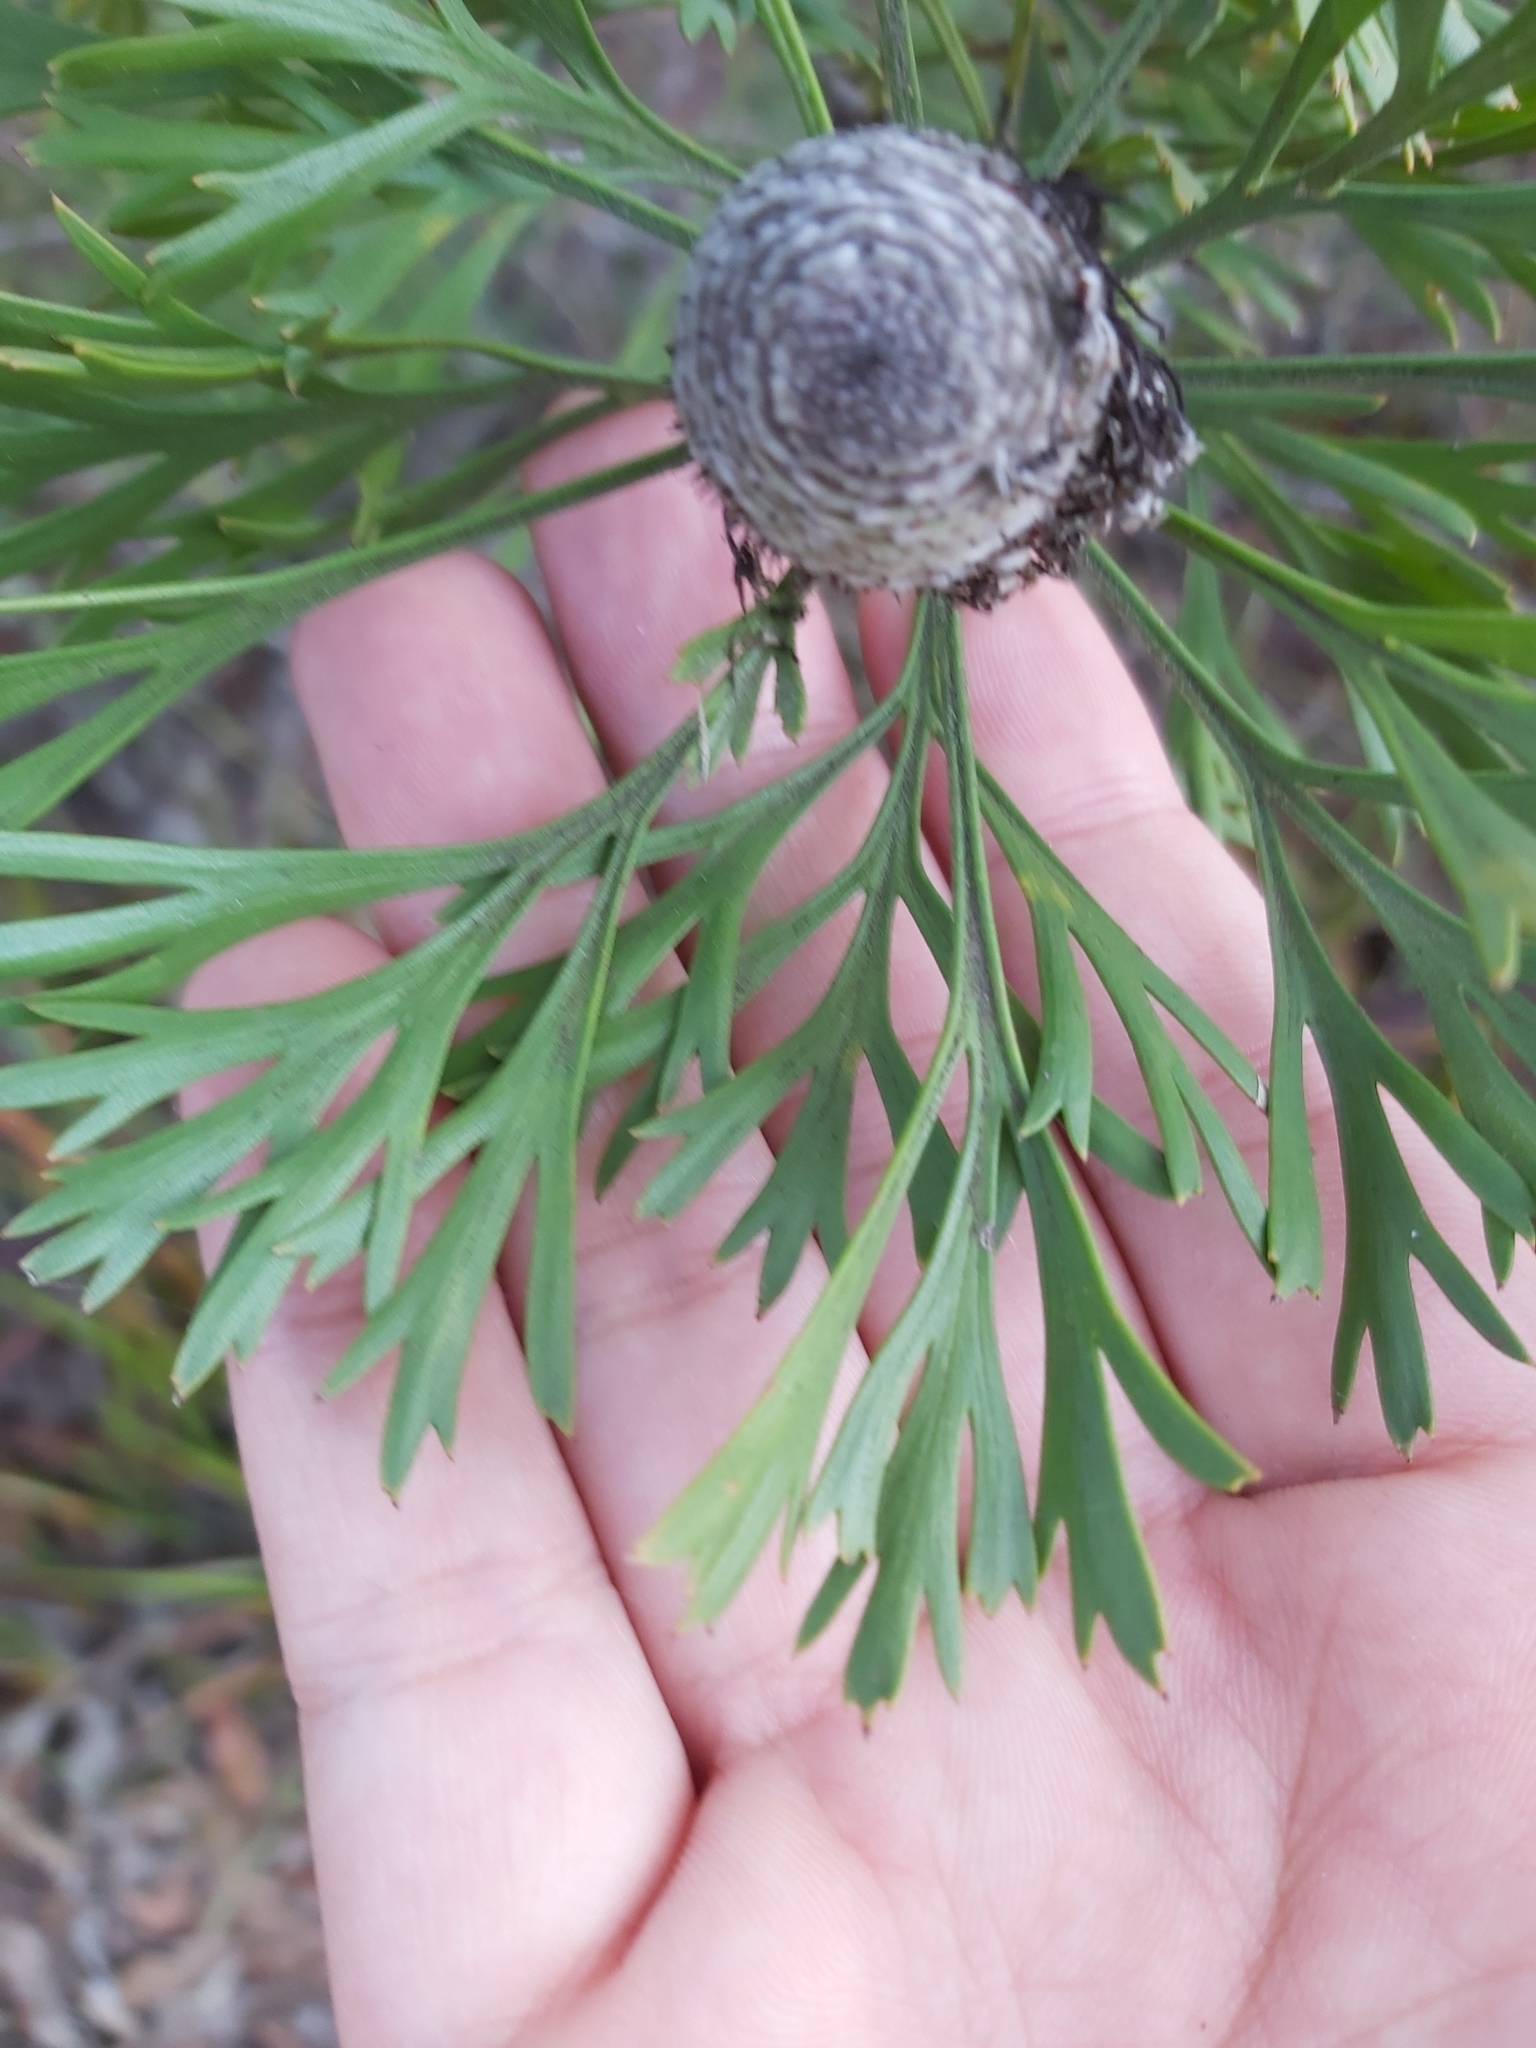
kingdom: Plantae
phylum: Tracheophyta
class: Magnoliopsida
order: Proteales
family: Proteaceae
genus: Isopogon
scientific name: Isopogon anemonifolius
